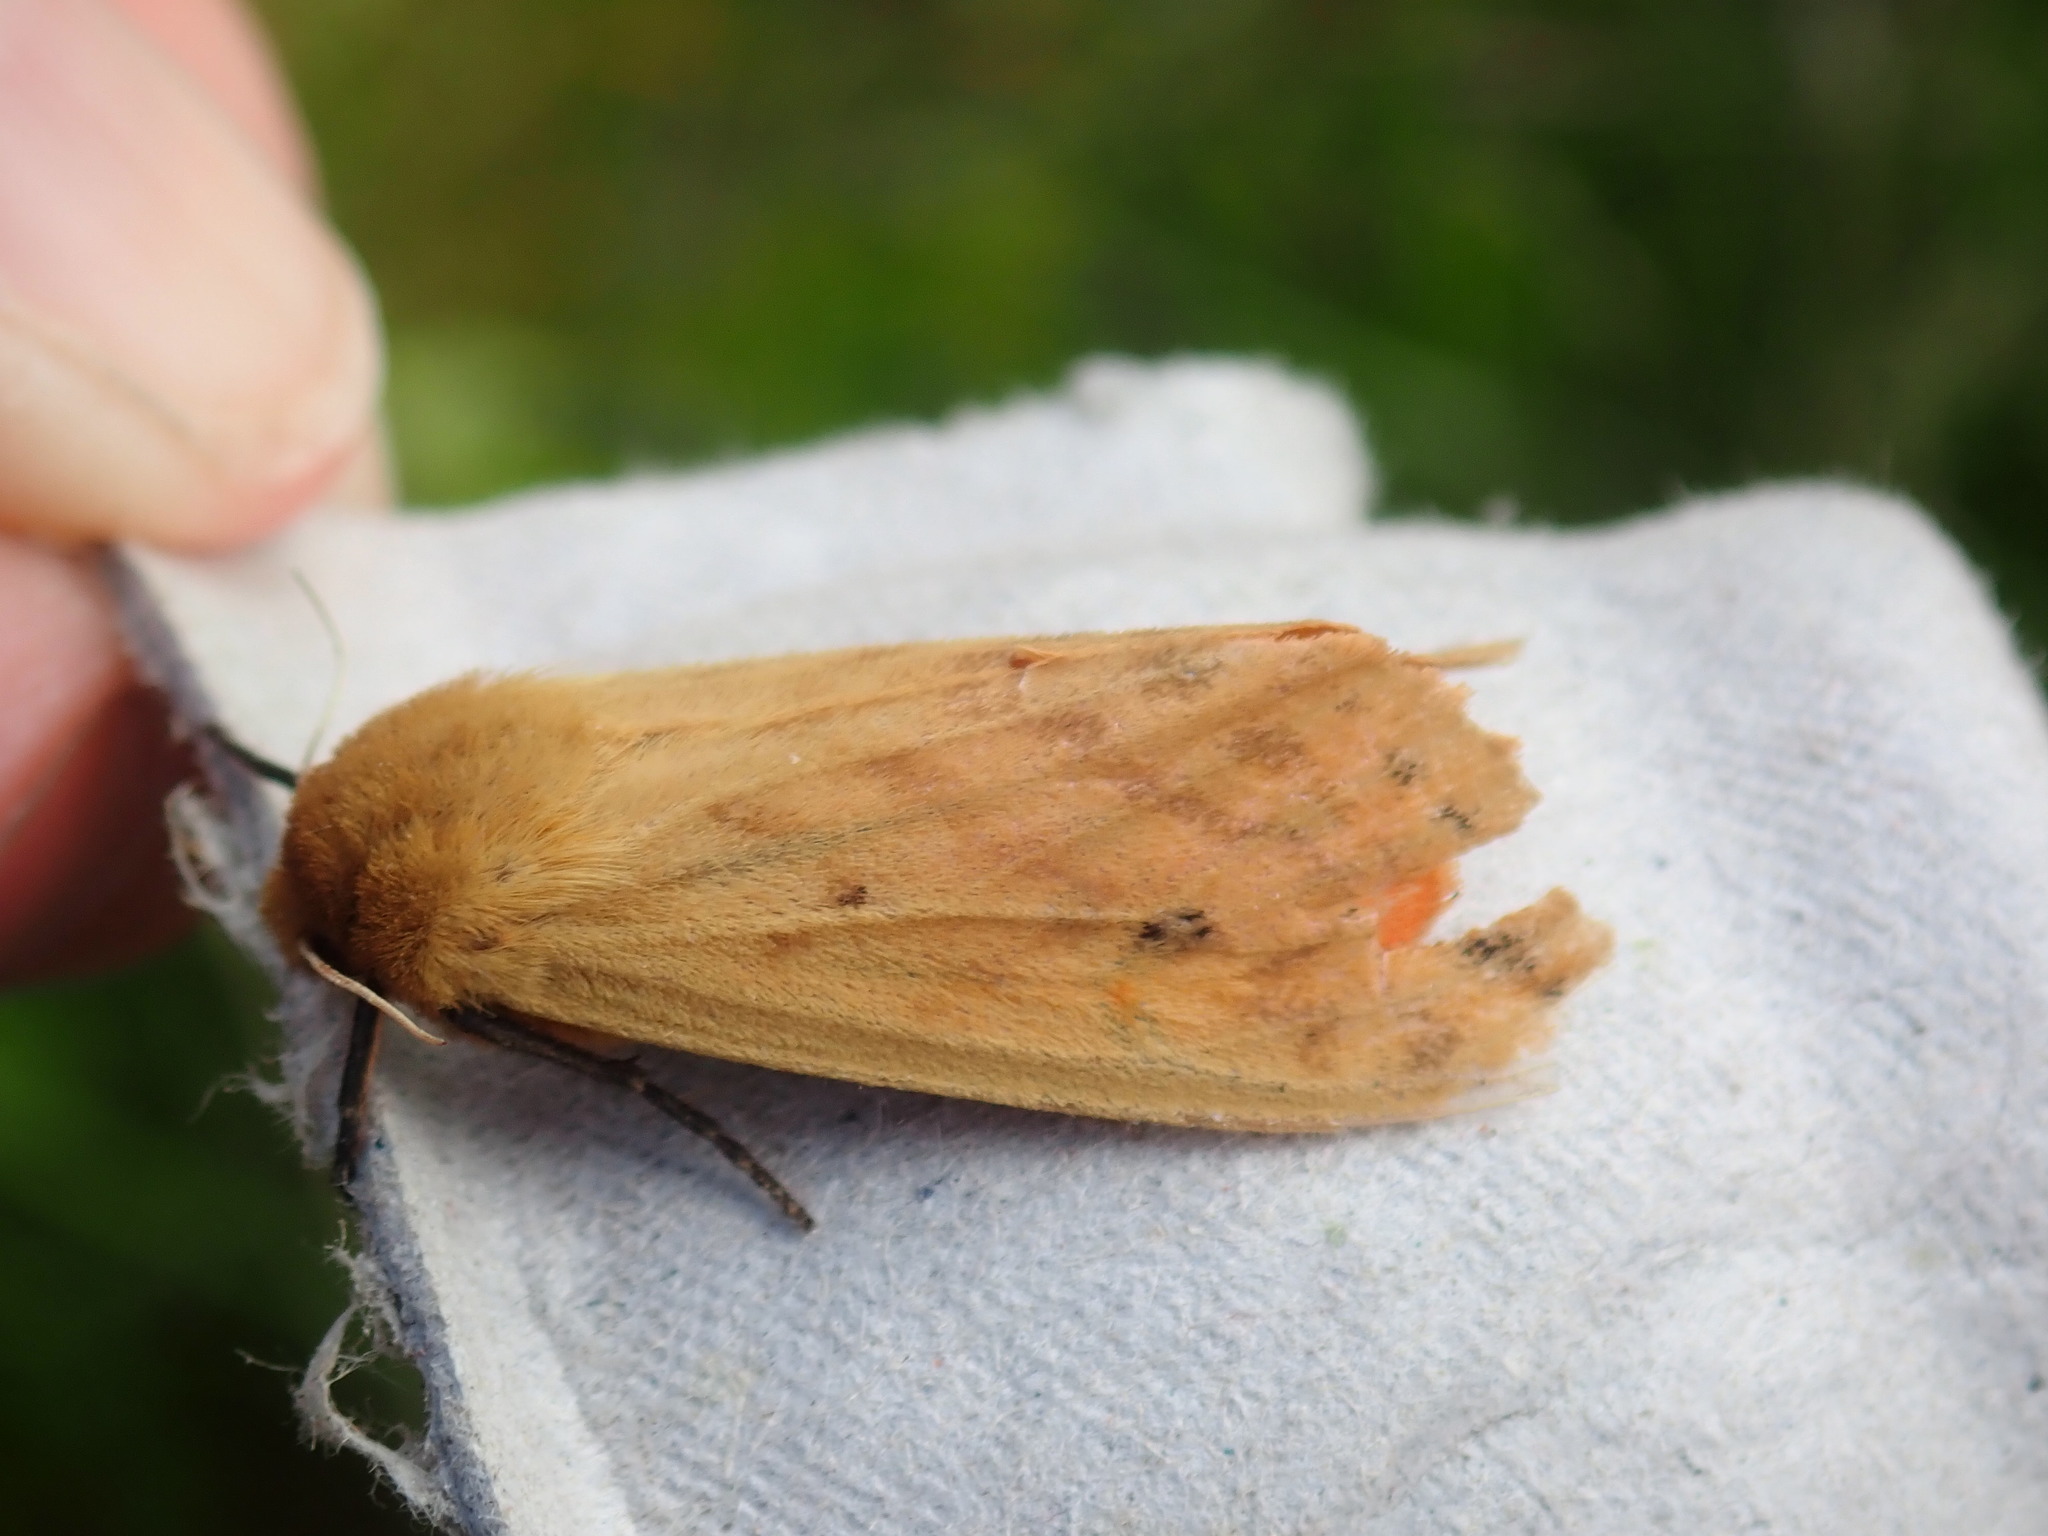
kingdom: Animalia
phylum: Arthropoda
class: Insecta
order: Lepidoptera
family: Erebidae
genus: Pyrrharctia
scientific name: Pyrrharctia isabella
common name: Isabella tiger moth
